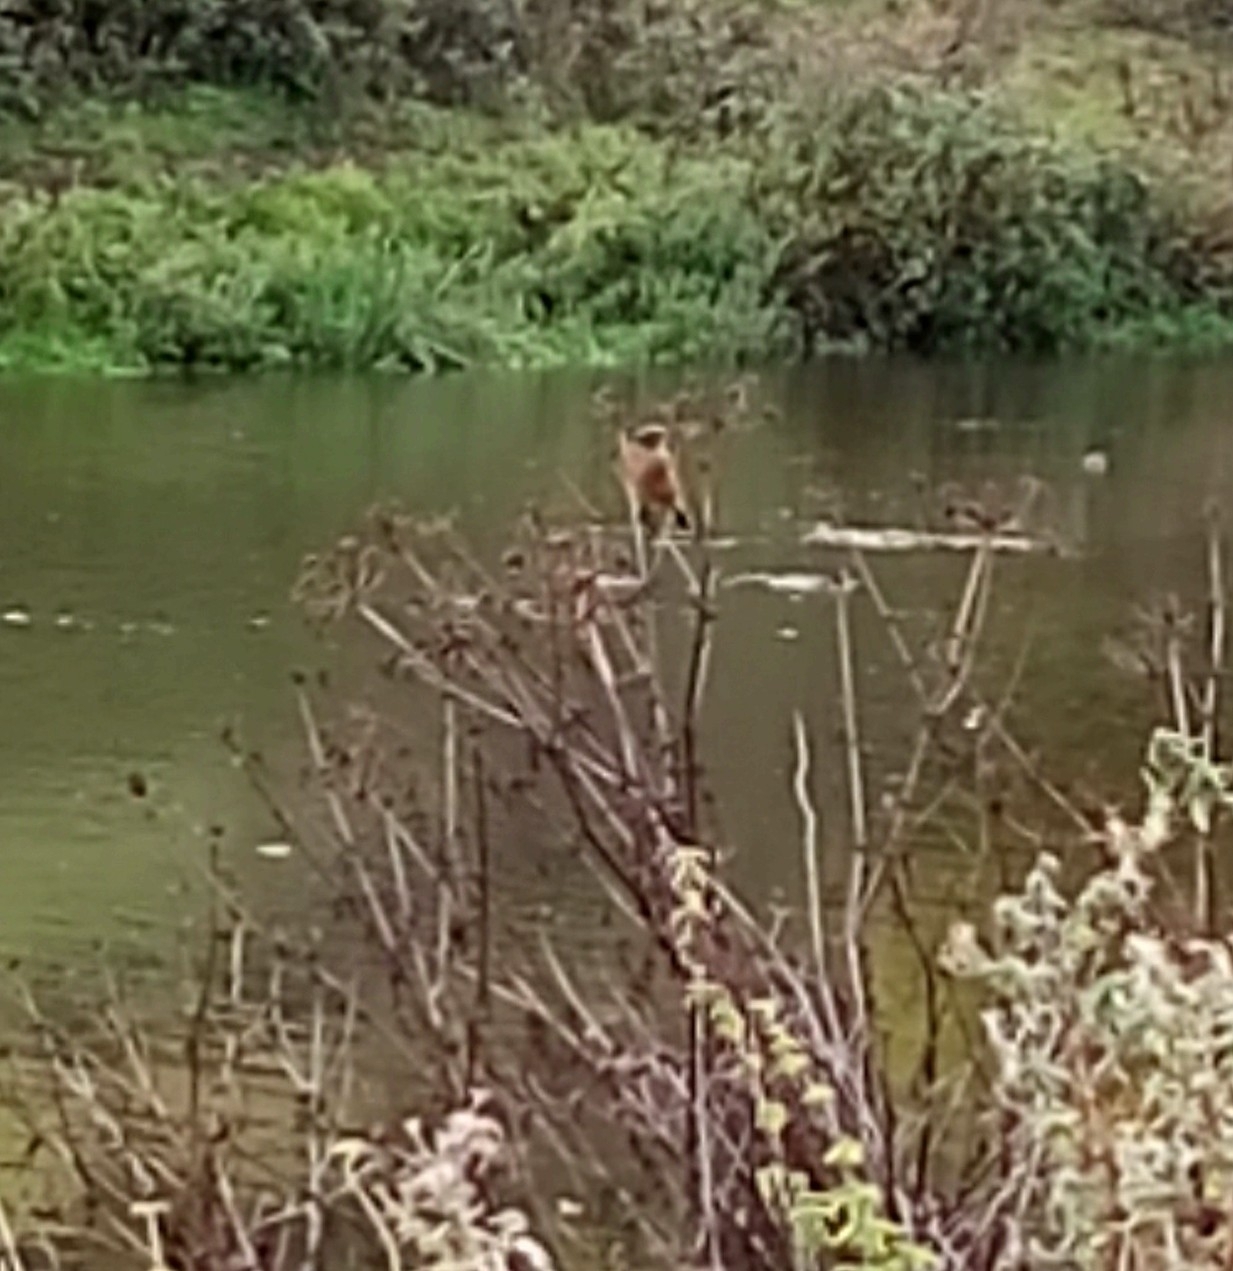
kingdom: Animalia
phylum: Chordata
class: Aves
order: Passeriformes
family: Muscicapidae
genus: Saxicola
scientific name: Saxicola rubicola
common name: European stonechat
